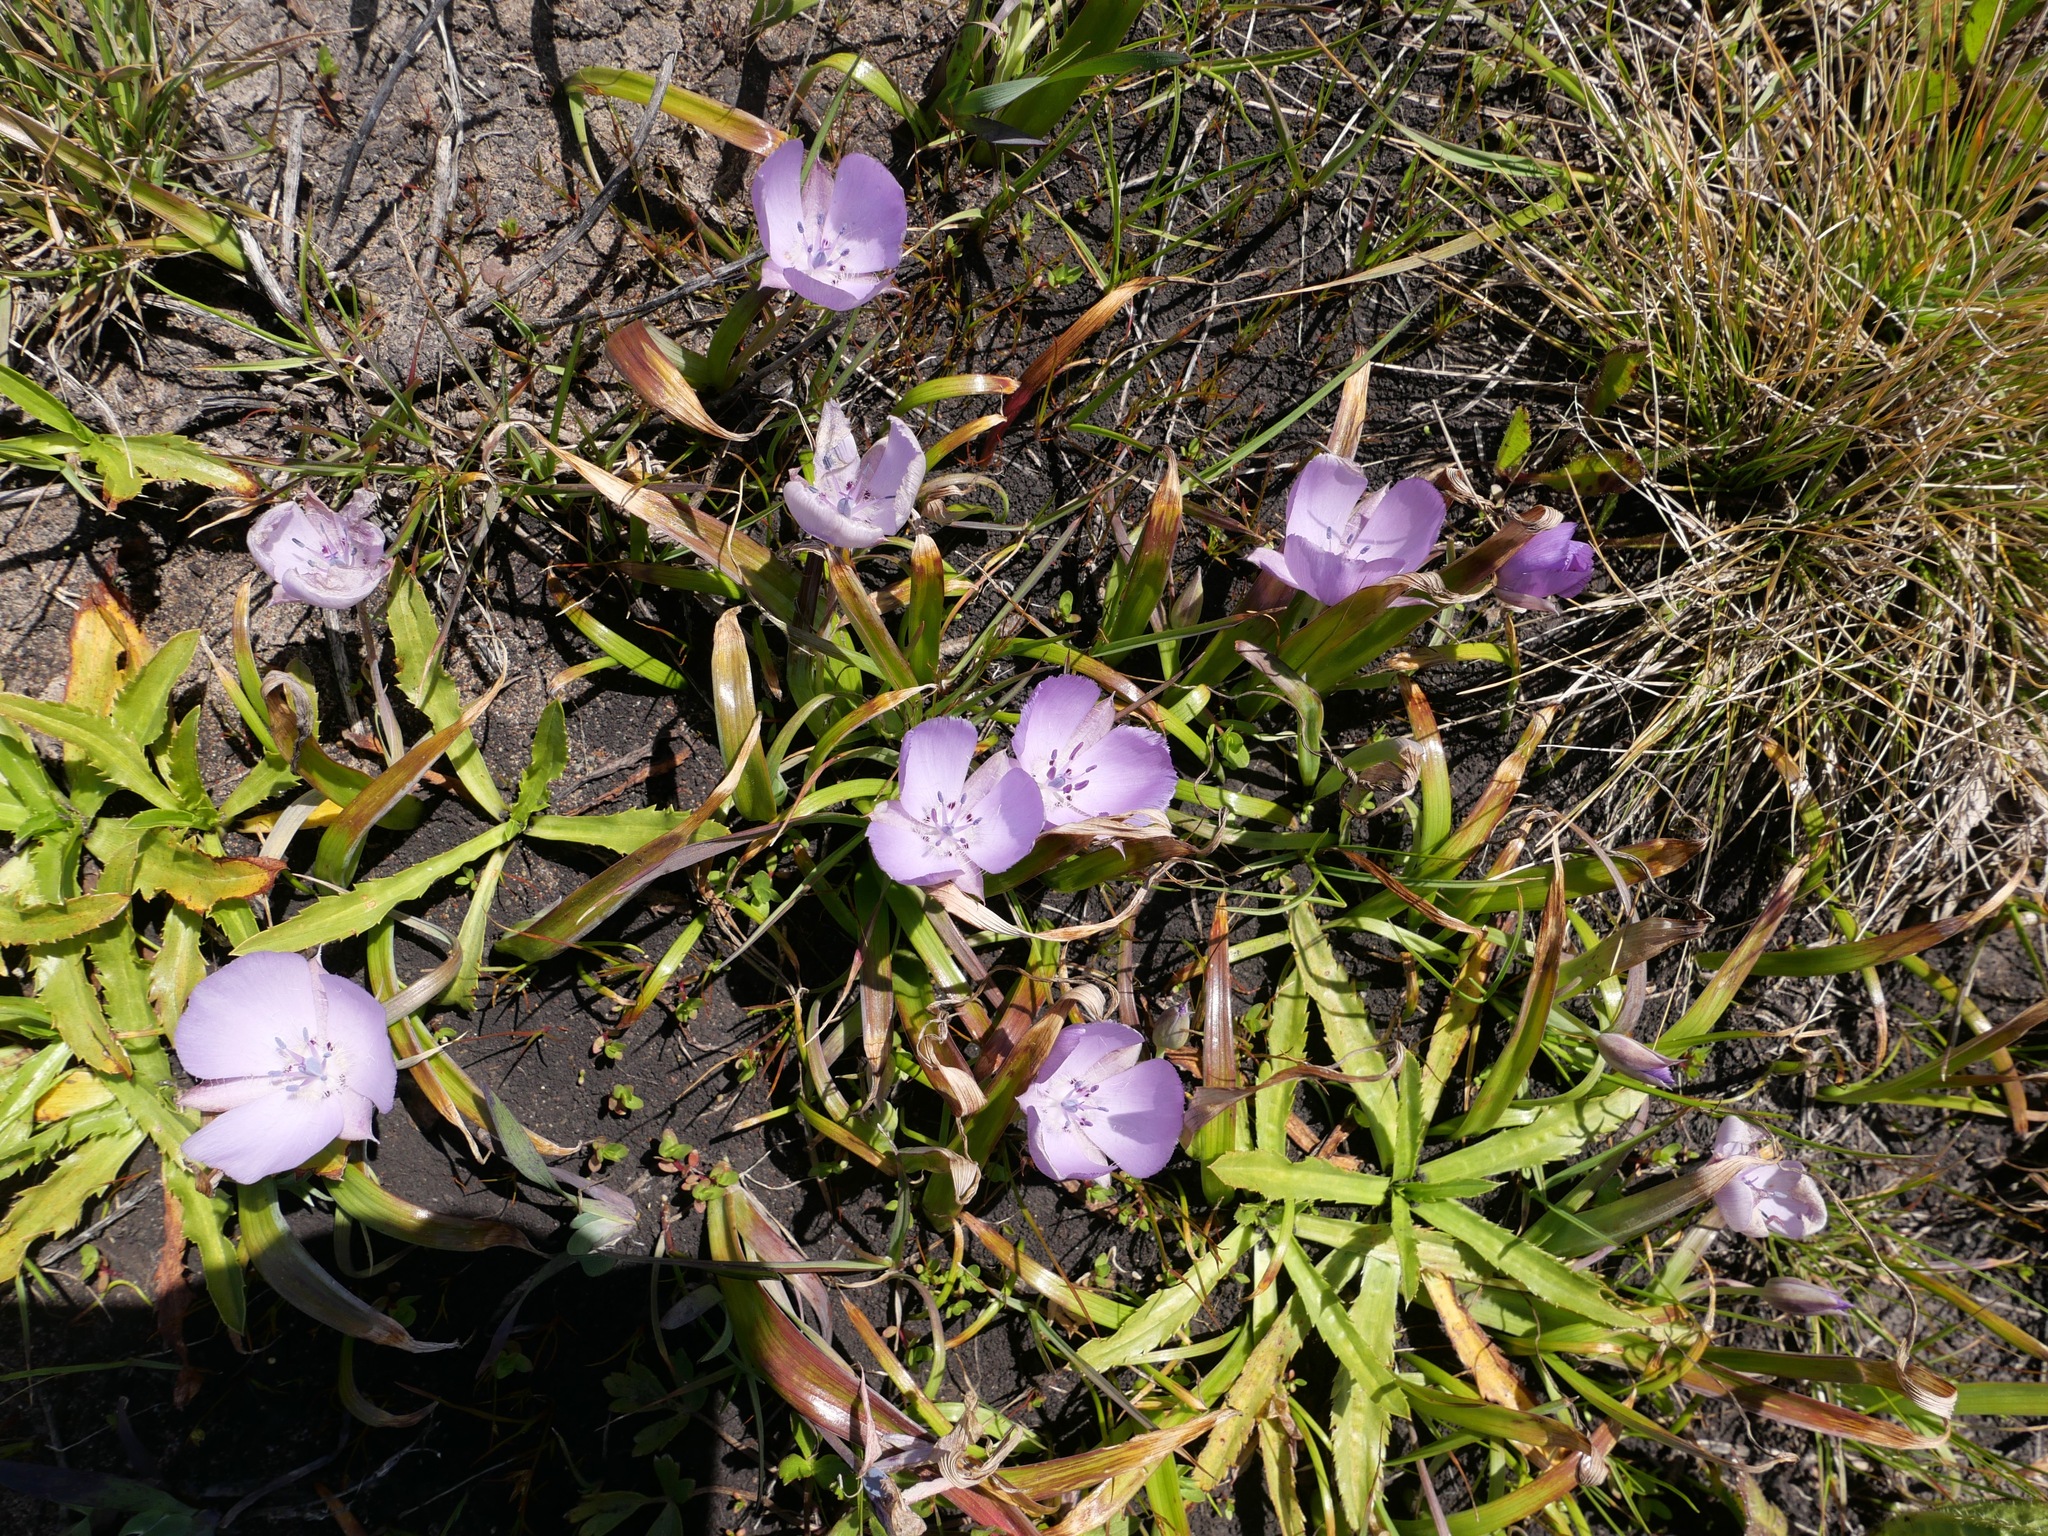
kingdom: Plantae
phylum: Tracheophyta
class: Liliopsida
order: Liliales
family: Liliaceae
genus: Calochortus
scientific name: Calochortus uniflorus
